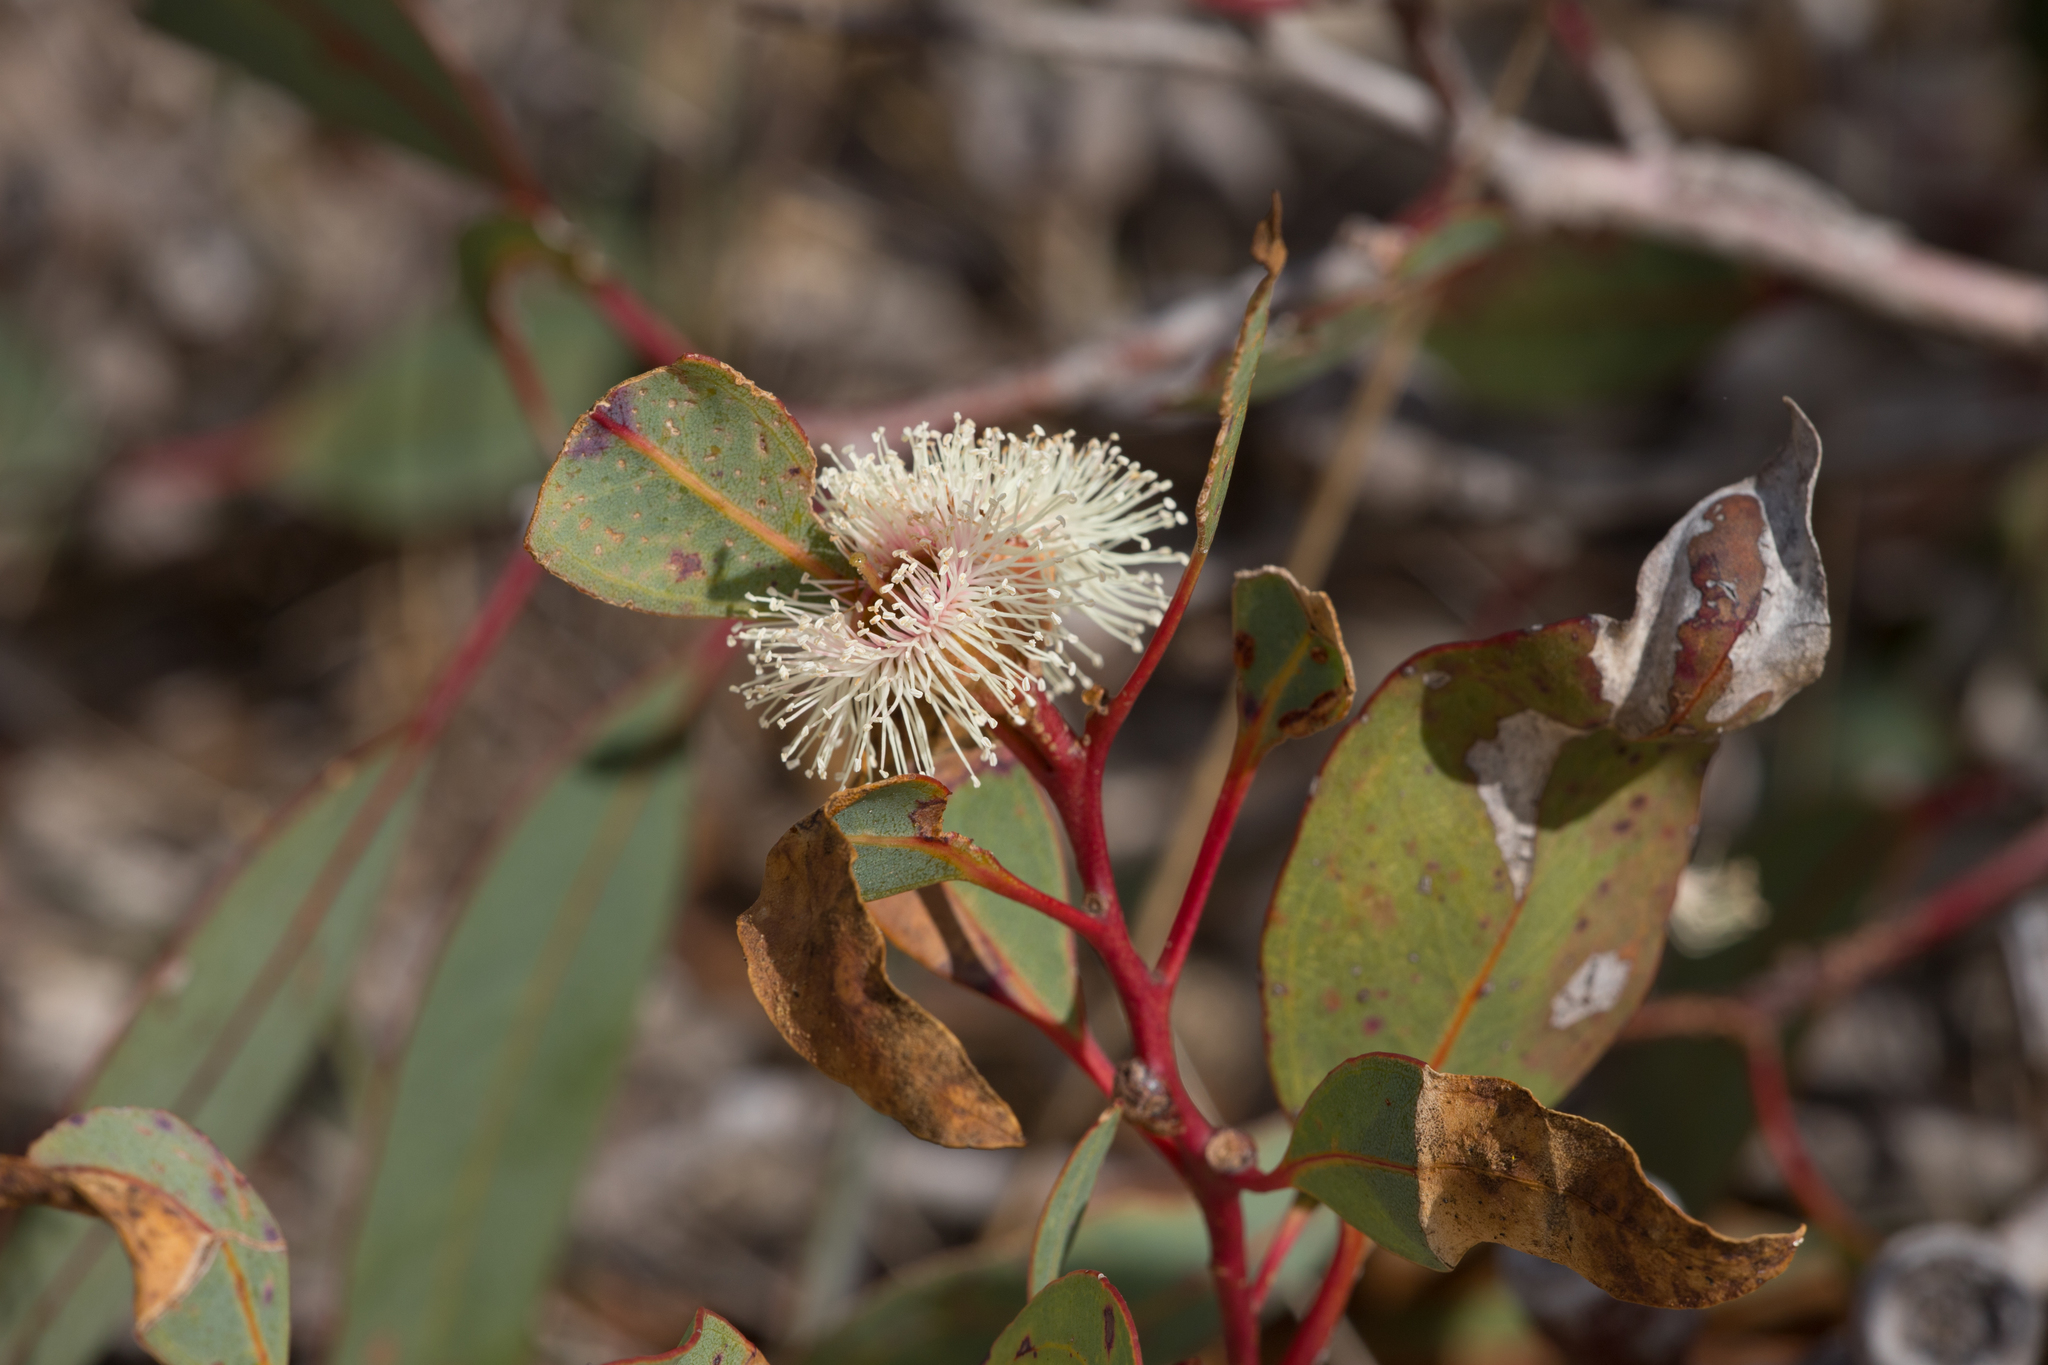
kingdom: Plantae
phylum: Tracheophyta
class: Magnoliopsida
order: Myrtales
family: Myrtaceae
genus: Eucalyptus
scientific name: Eucalyptus cosmophylla
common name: Bog-gum
